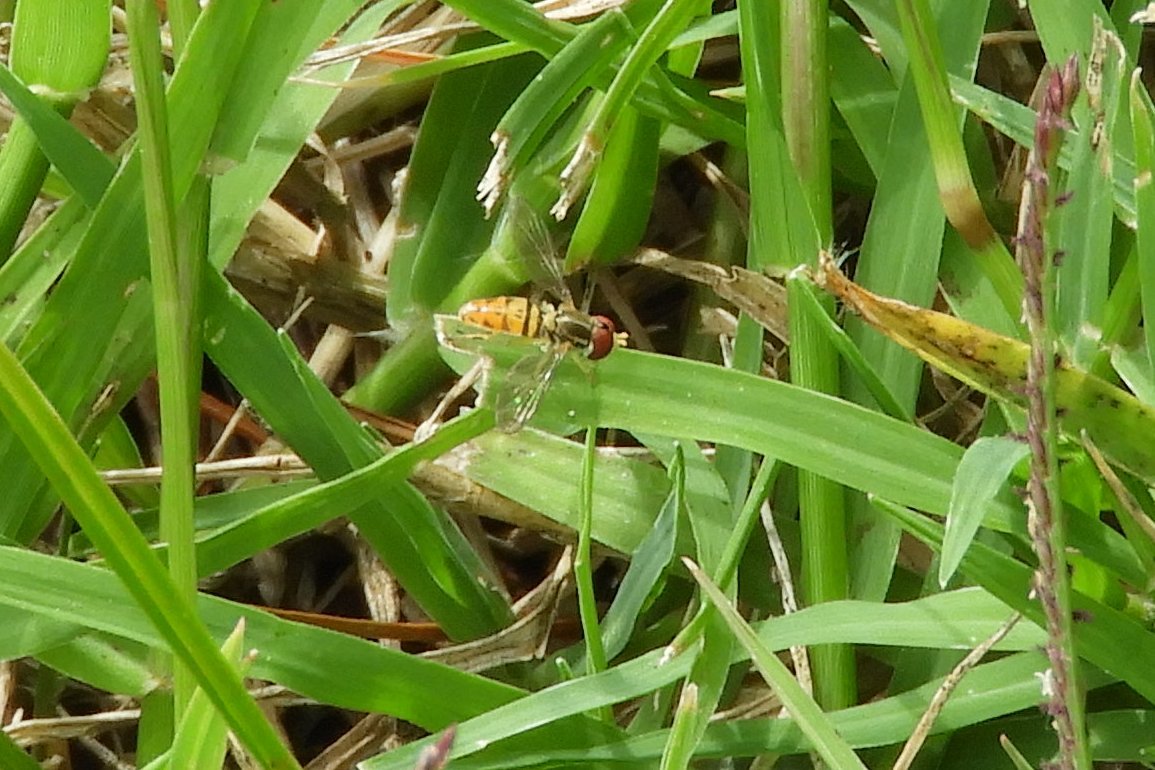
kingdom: Animalia
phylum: Arthropoda
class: Insecta
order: Diptera
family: Syrphidae
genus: Toxomerus
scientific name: Toxomerus marginatus
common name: Syrphid fly
